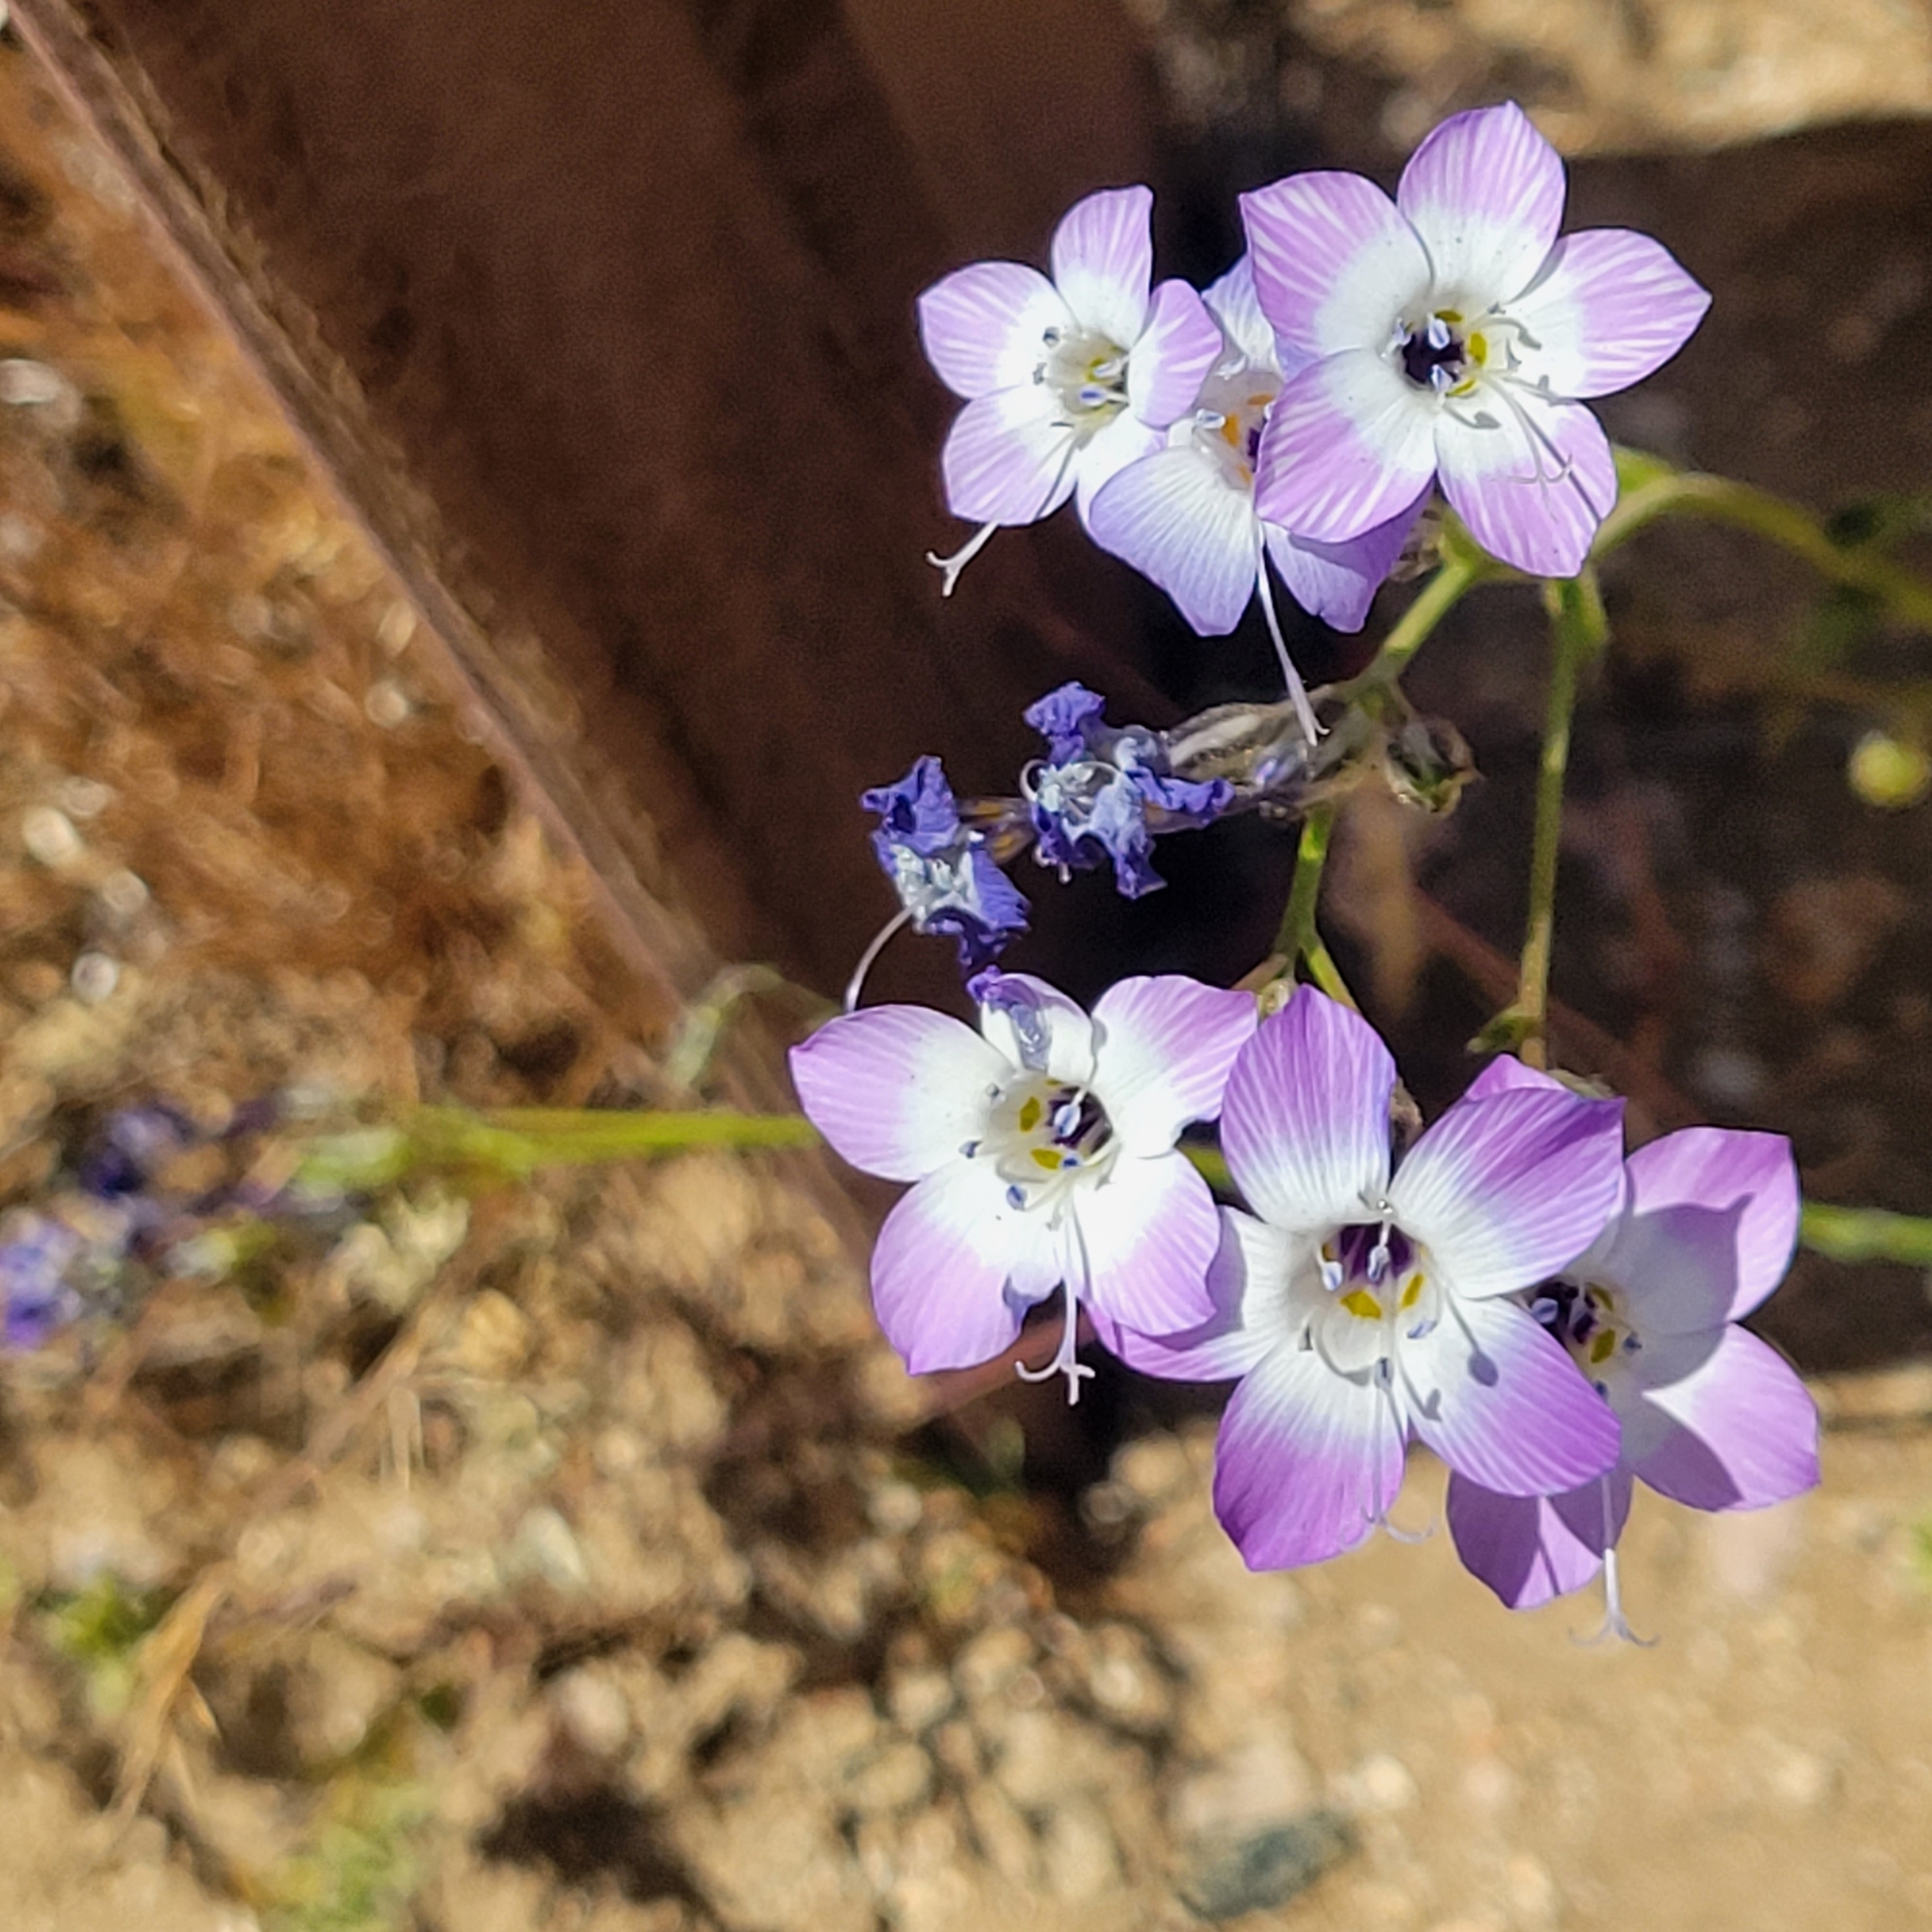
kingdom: Plantae
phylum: Tracheophyta
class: Magnoliopsida
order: Ericales
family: Polemoniaceae
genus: Gilia
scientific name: Gilia latiflora
